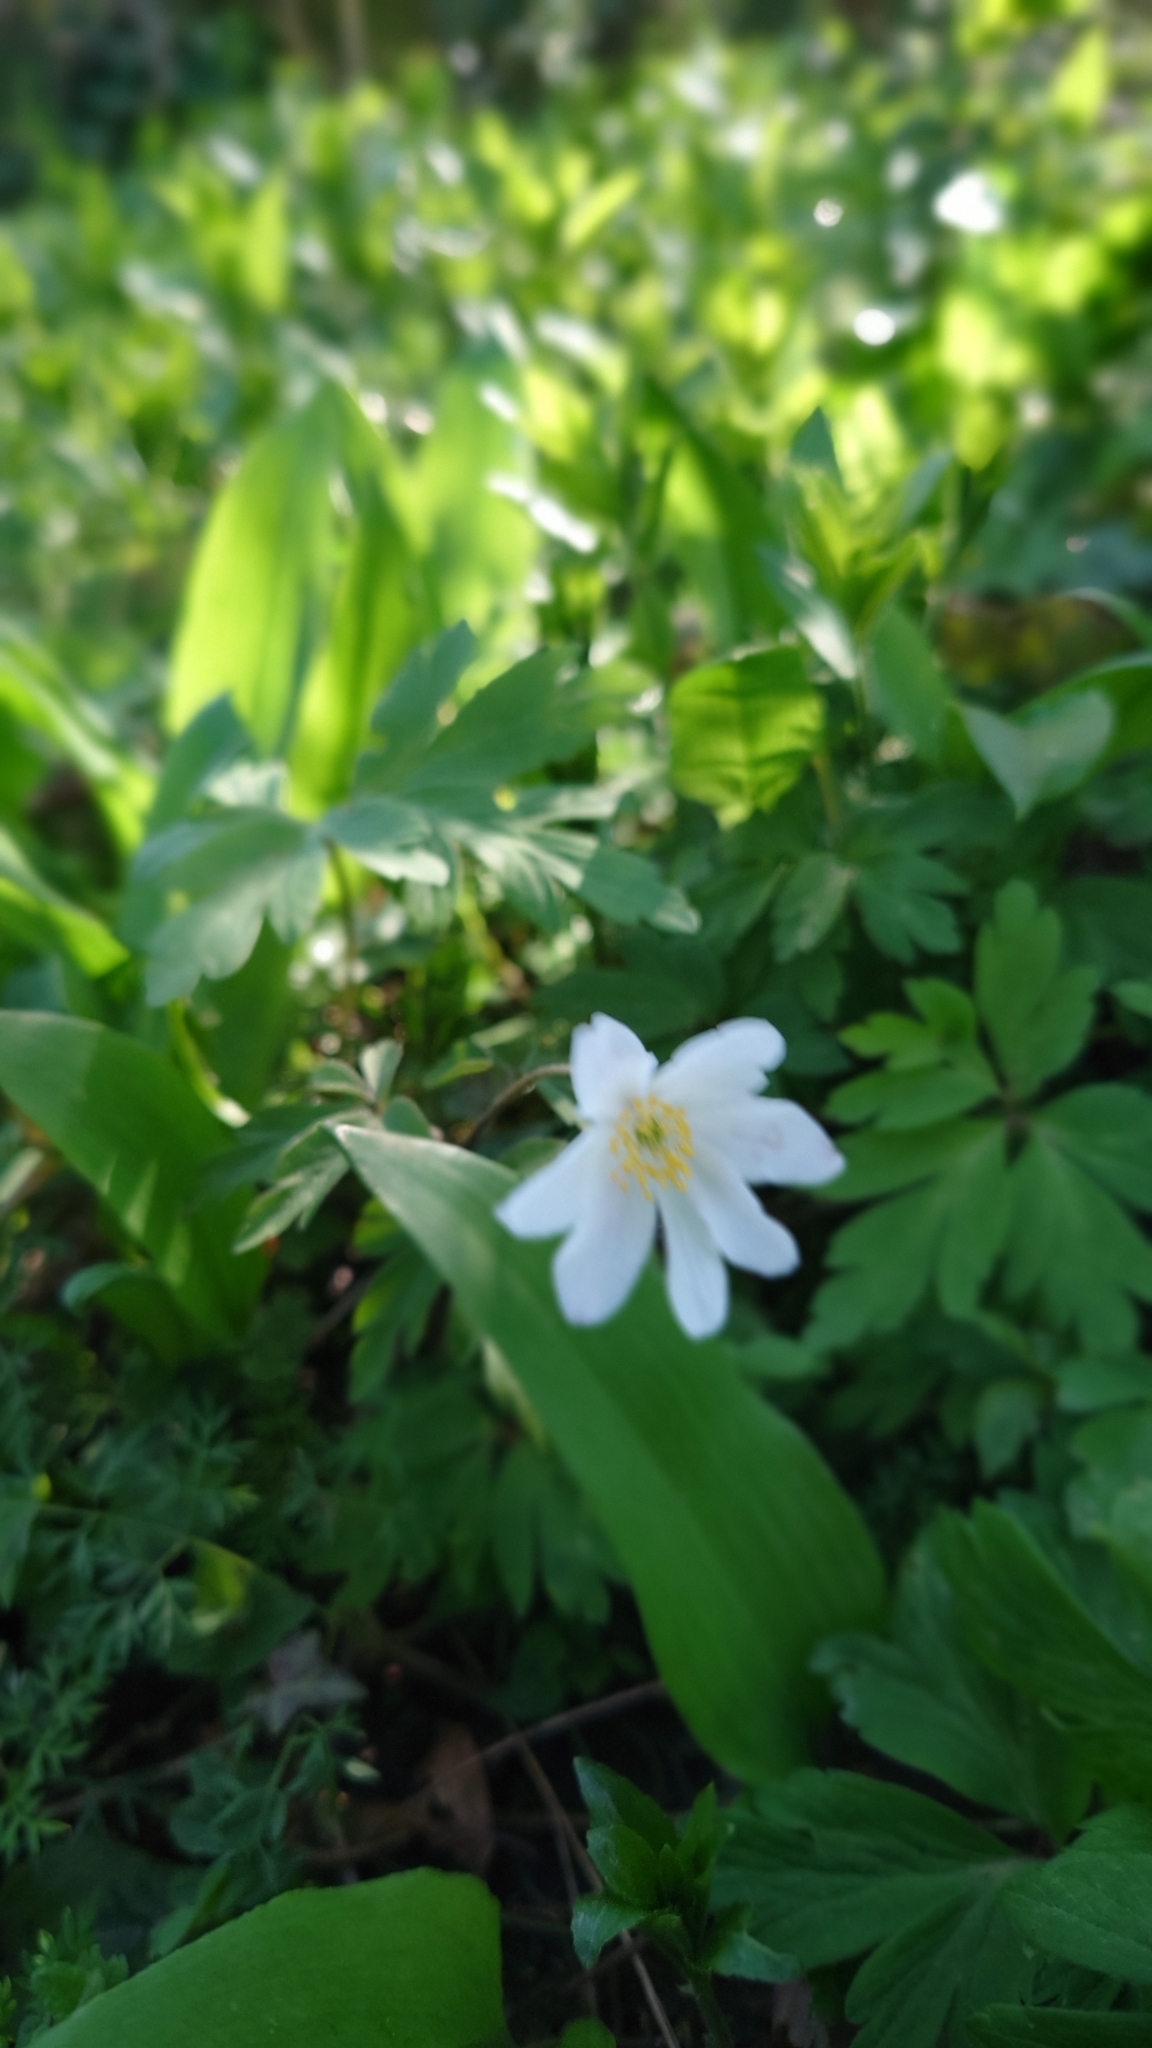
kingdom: Plantae
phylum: Tracheophyta
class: Magnoliopsida
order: Ranunculales
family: Ranunculaceae
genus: Anemone
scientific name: Anemone nemorosa
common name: Wood anemone
